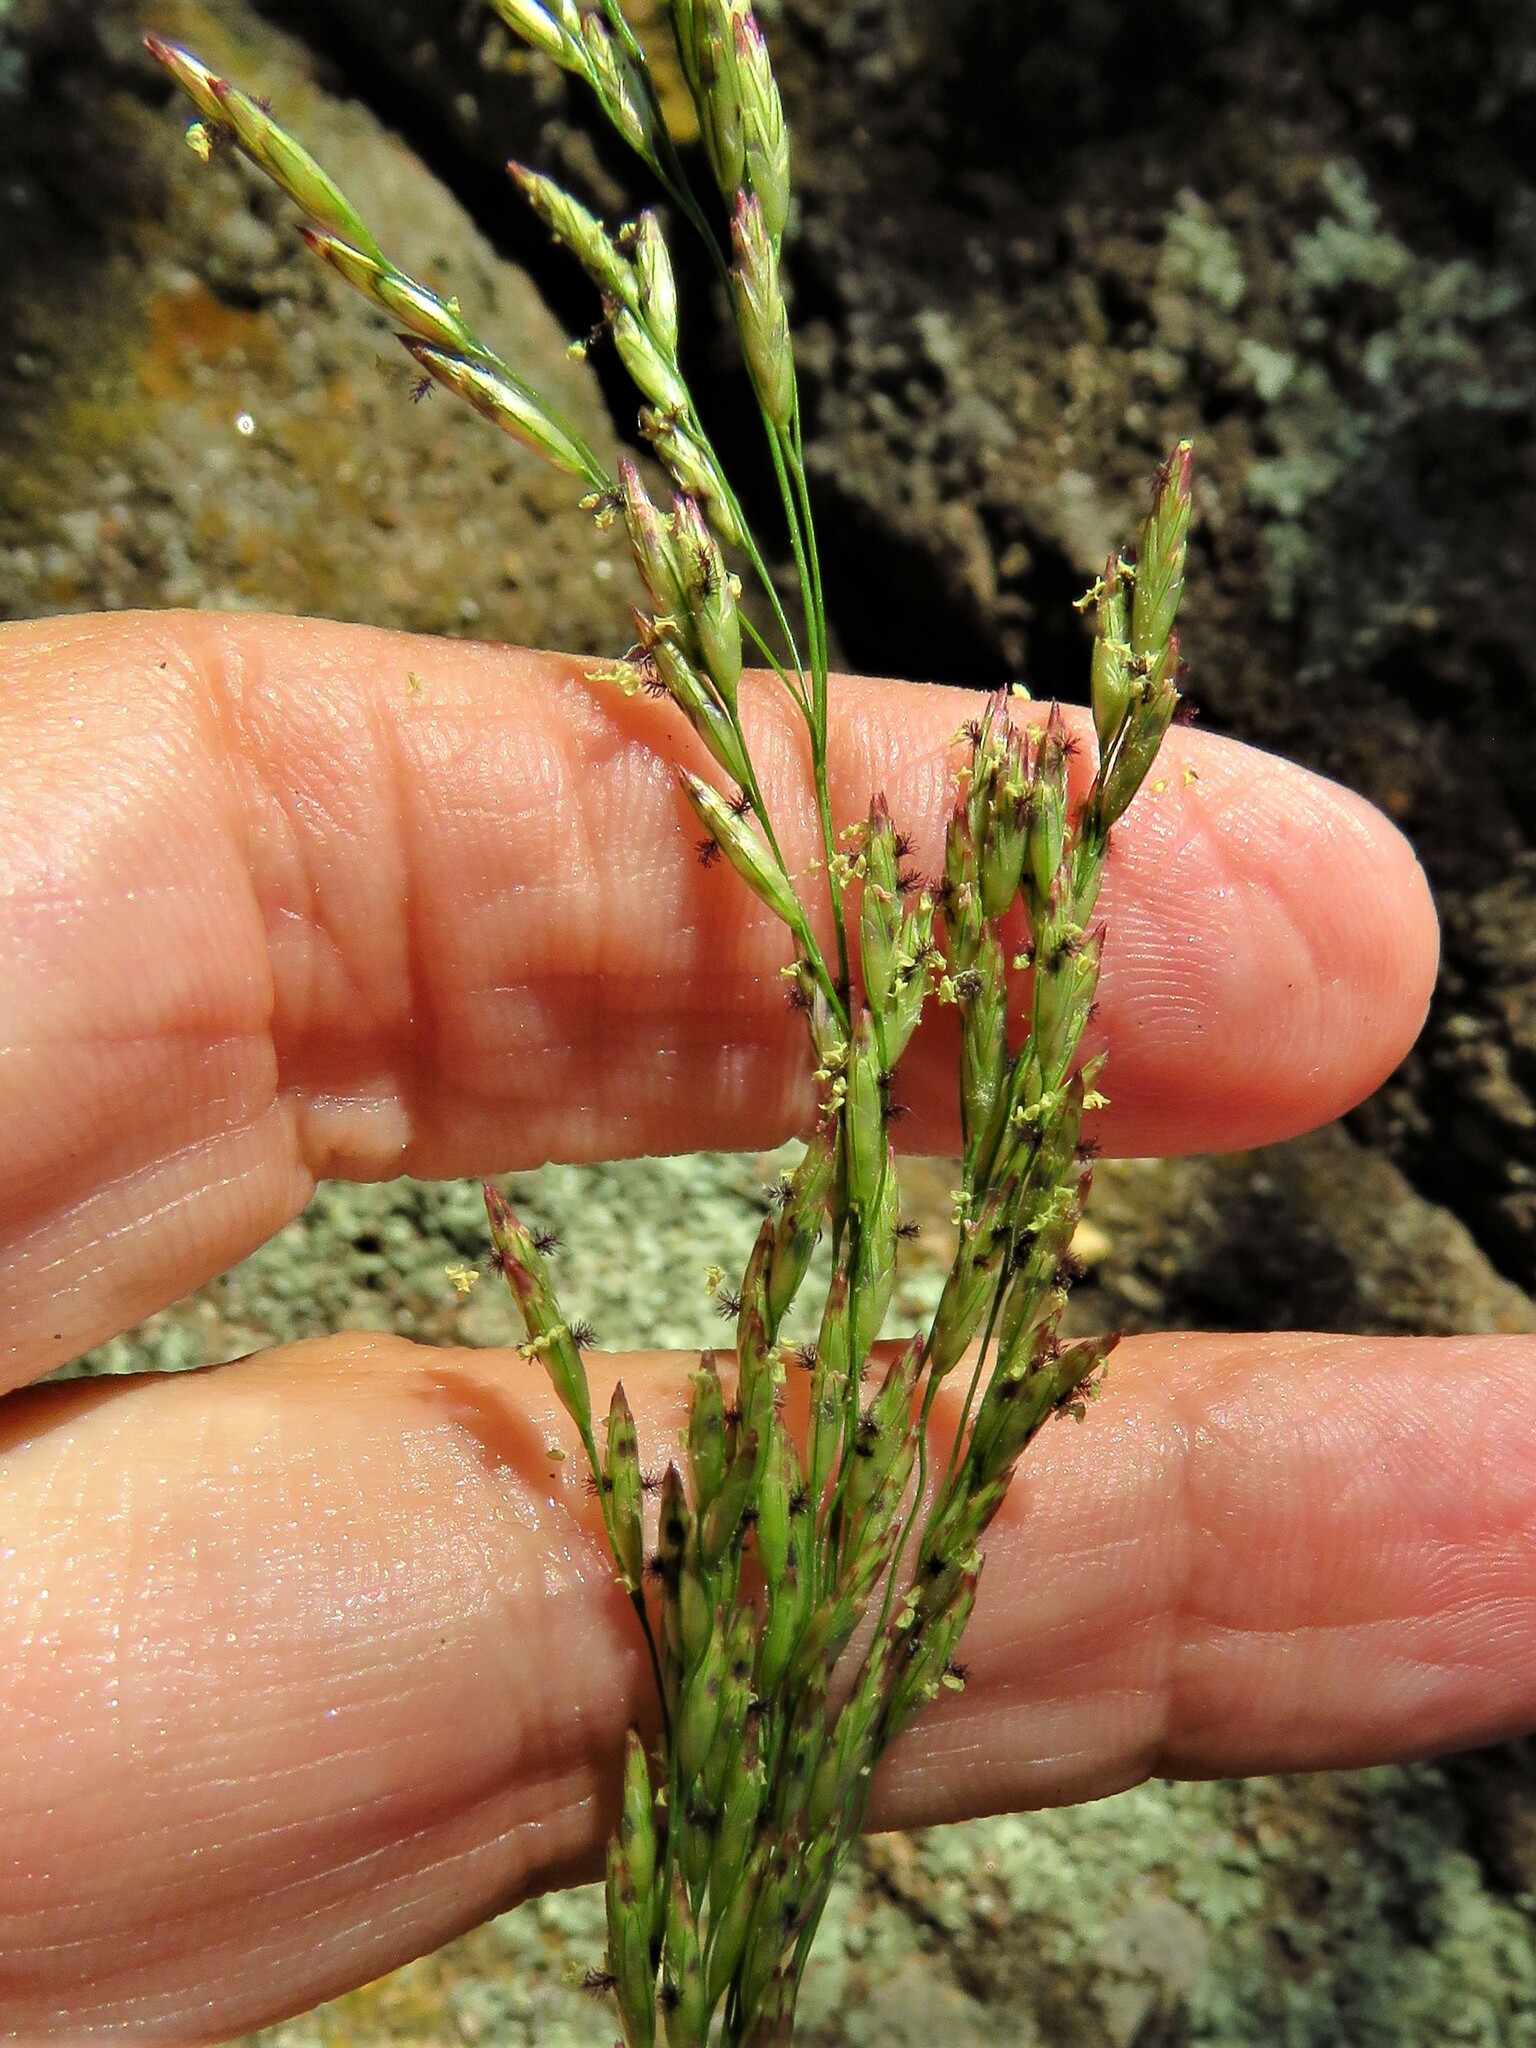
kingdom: Plantae
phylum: Tracheophyta
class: Liliopsida
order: Poales
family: Poaceae
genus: Tridens
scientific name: Tridens flavus
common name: Purpletop
